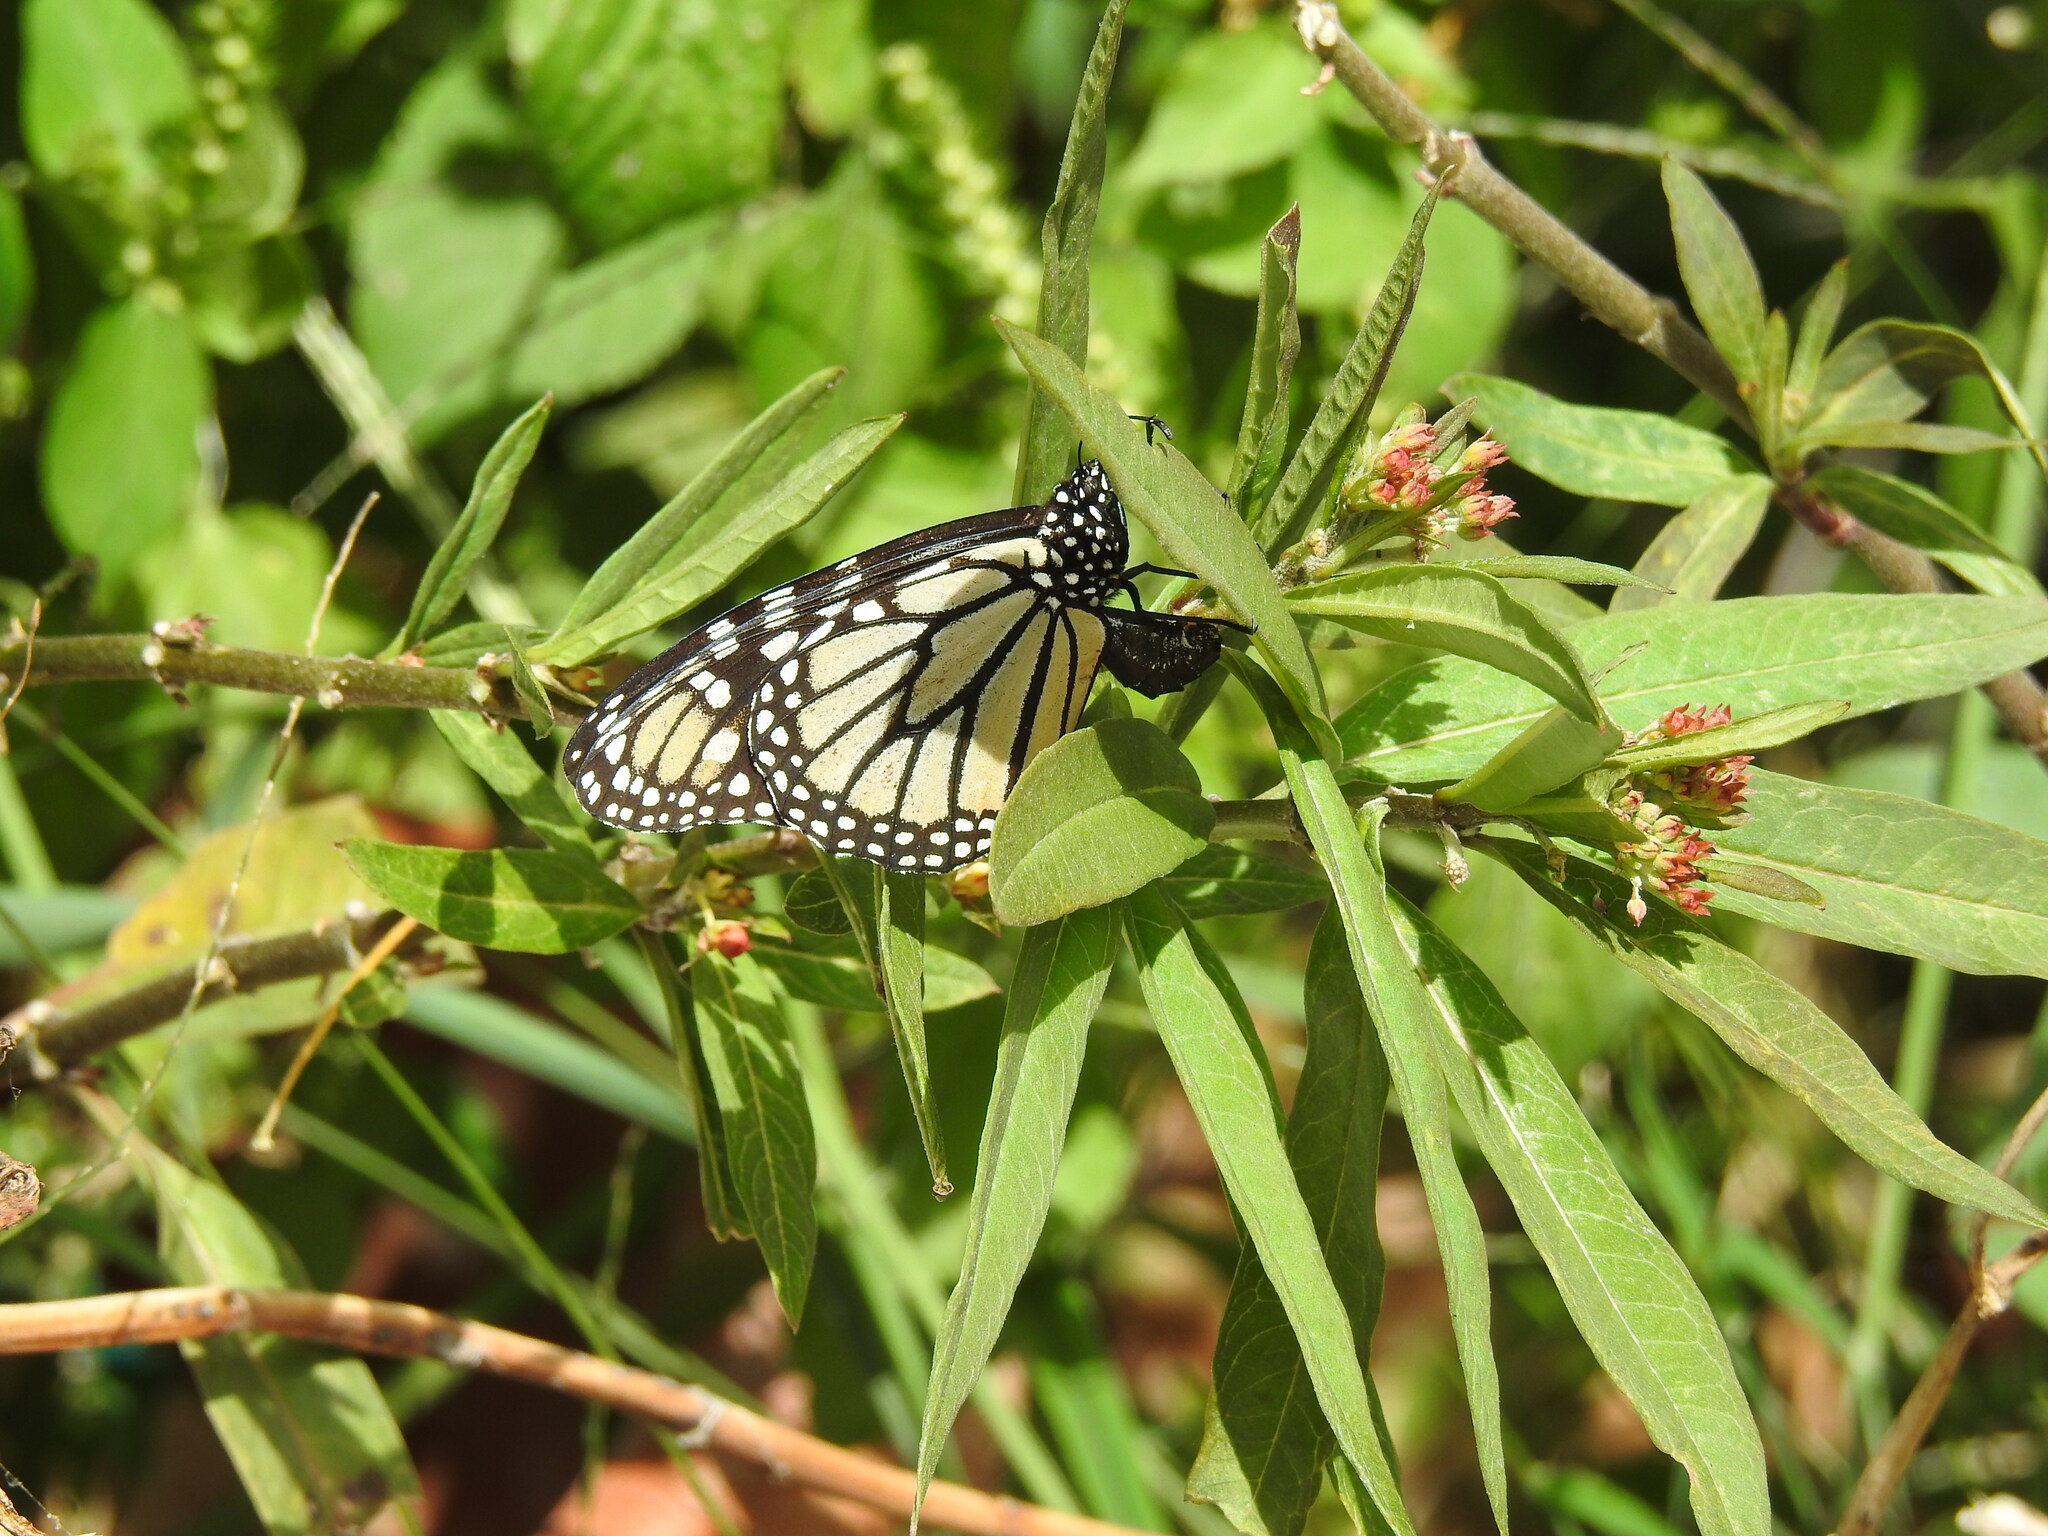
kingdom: Animalia
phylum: Arthropoda
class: Insecta
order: Lepidoptera
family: Nymphalidae
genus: Danaus
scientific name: Danaus plexippus
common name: Monarch
